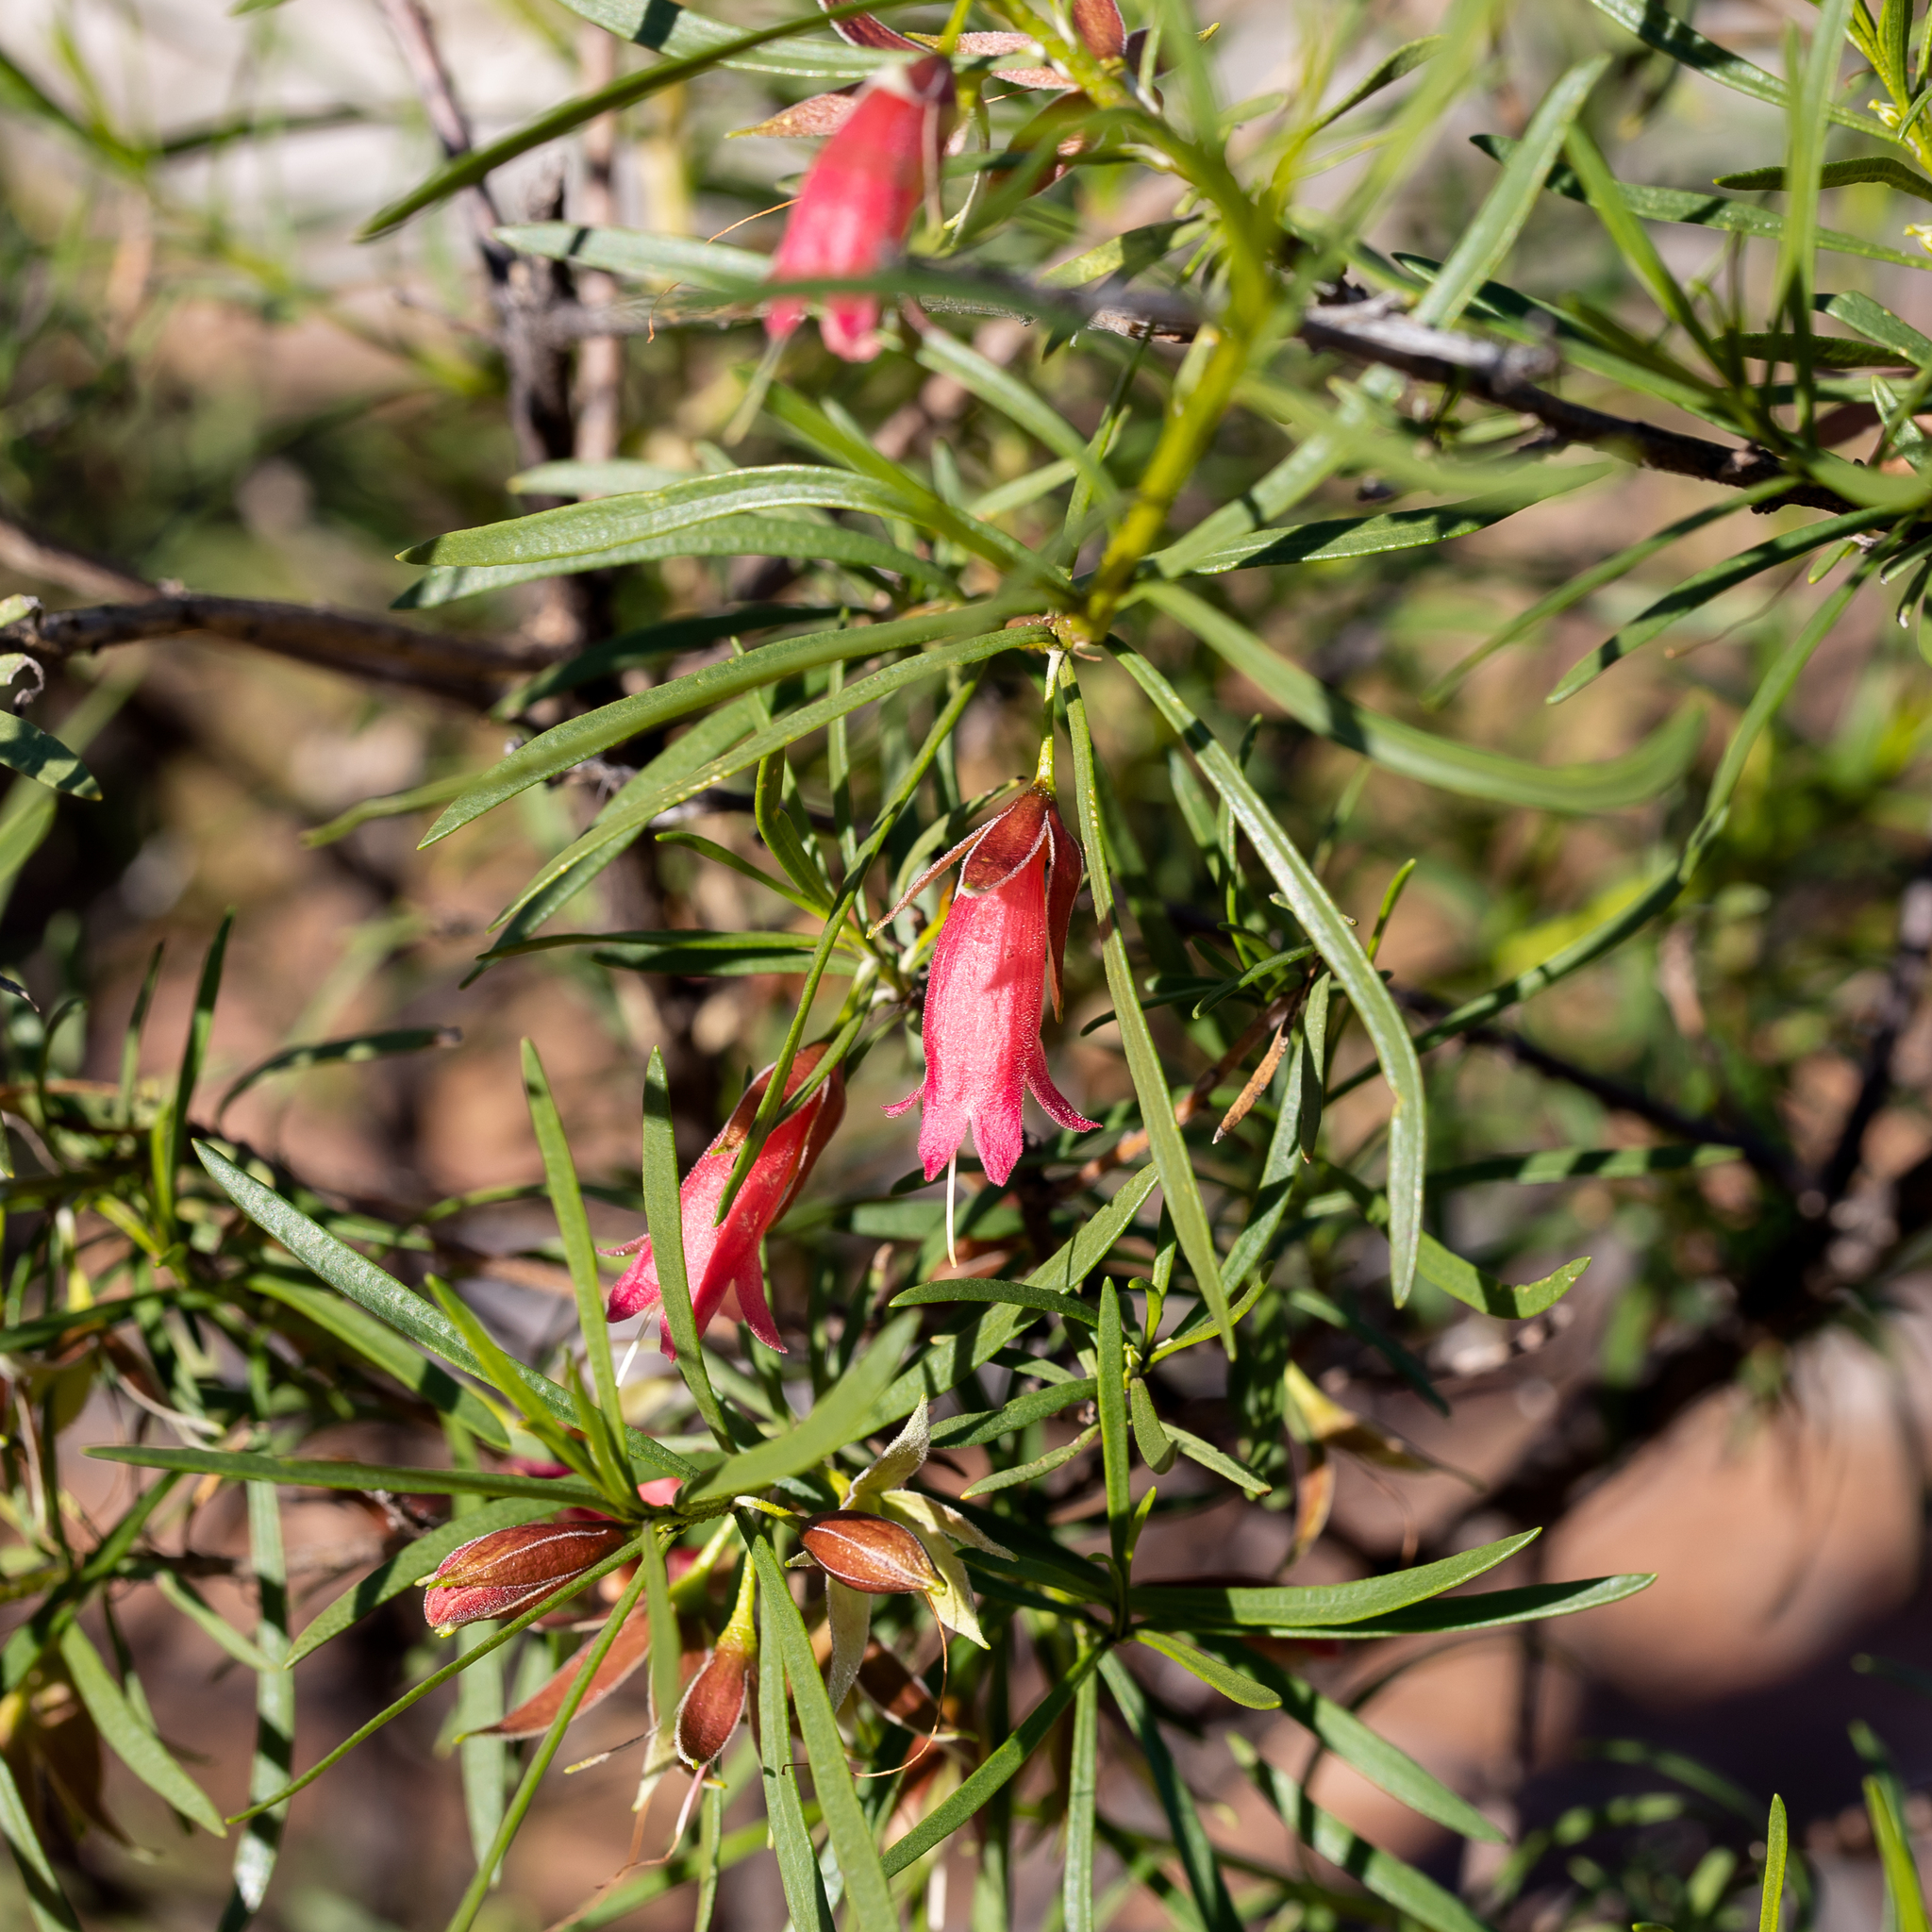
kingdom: Plantae
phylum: Tracheophyta
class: Magnoliopsida
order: Lamiales
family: Scrophulariaceae
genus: Eremophila
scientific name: Eremophila latrobei
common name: Crimson turkeybush
